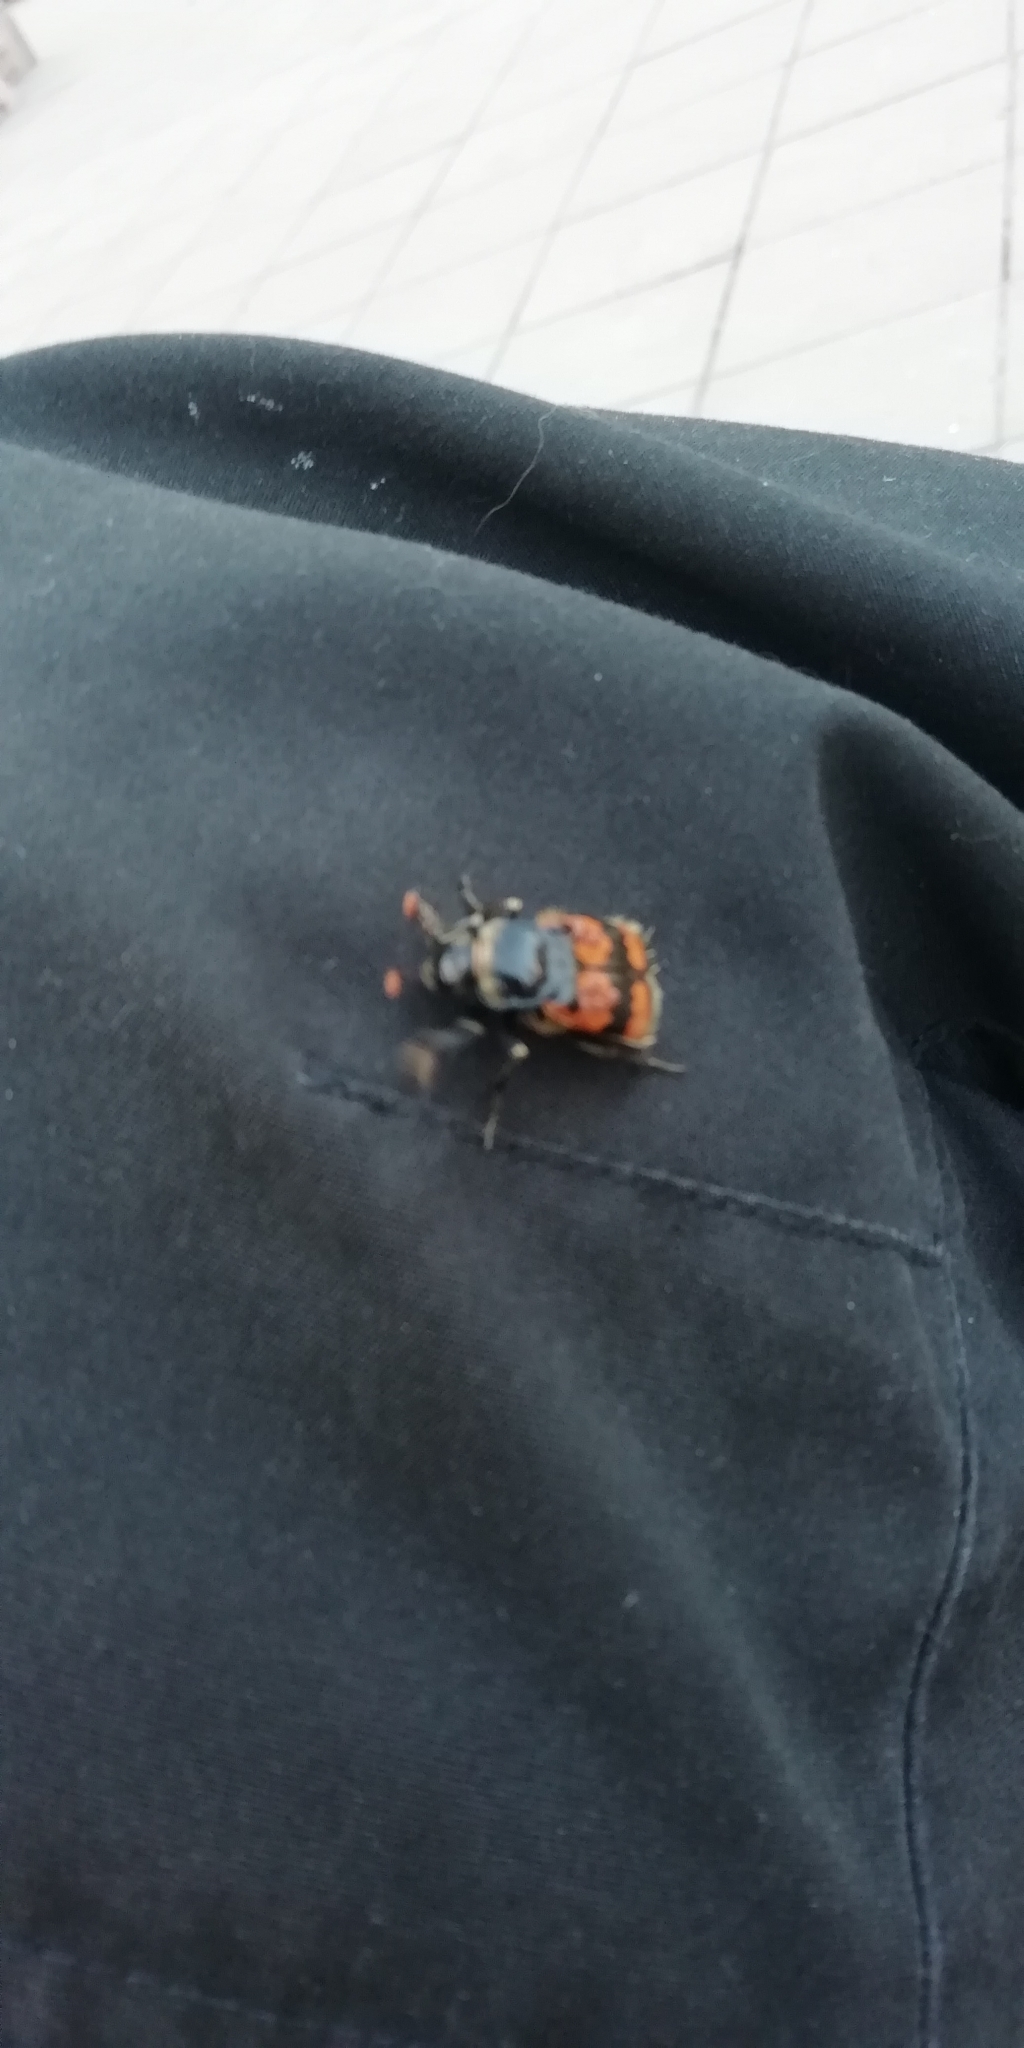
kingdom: Animalia
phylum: Arthropoda
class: Insecta
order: Coleoptera
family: Staphylinidae
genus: Nicrophorus
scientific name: Nicrophorus vespillo
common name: Common burying beetle
